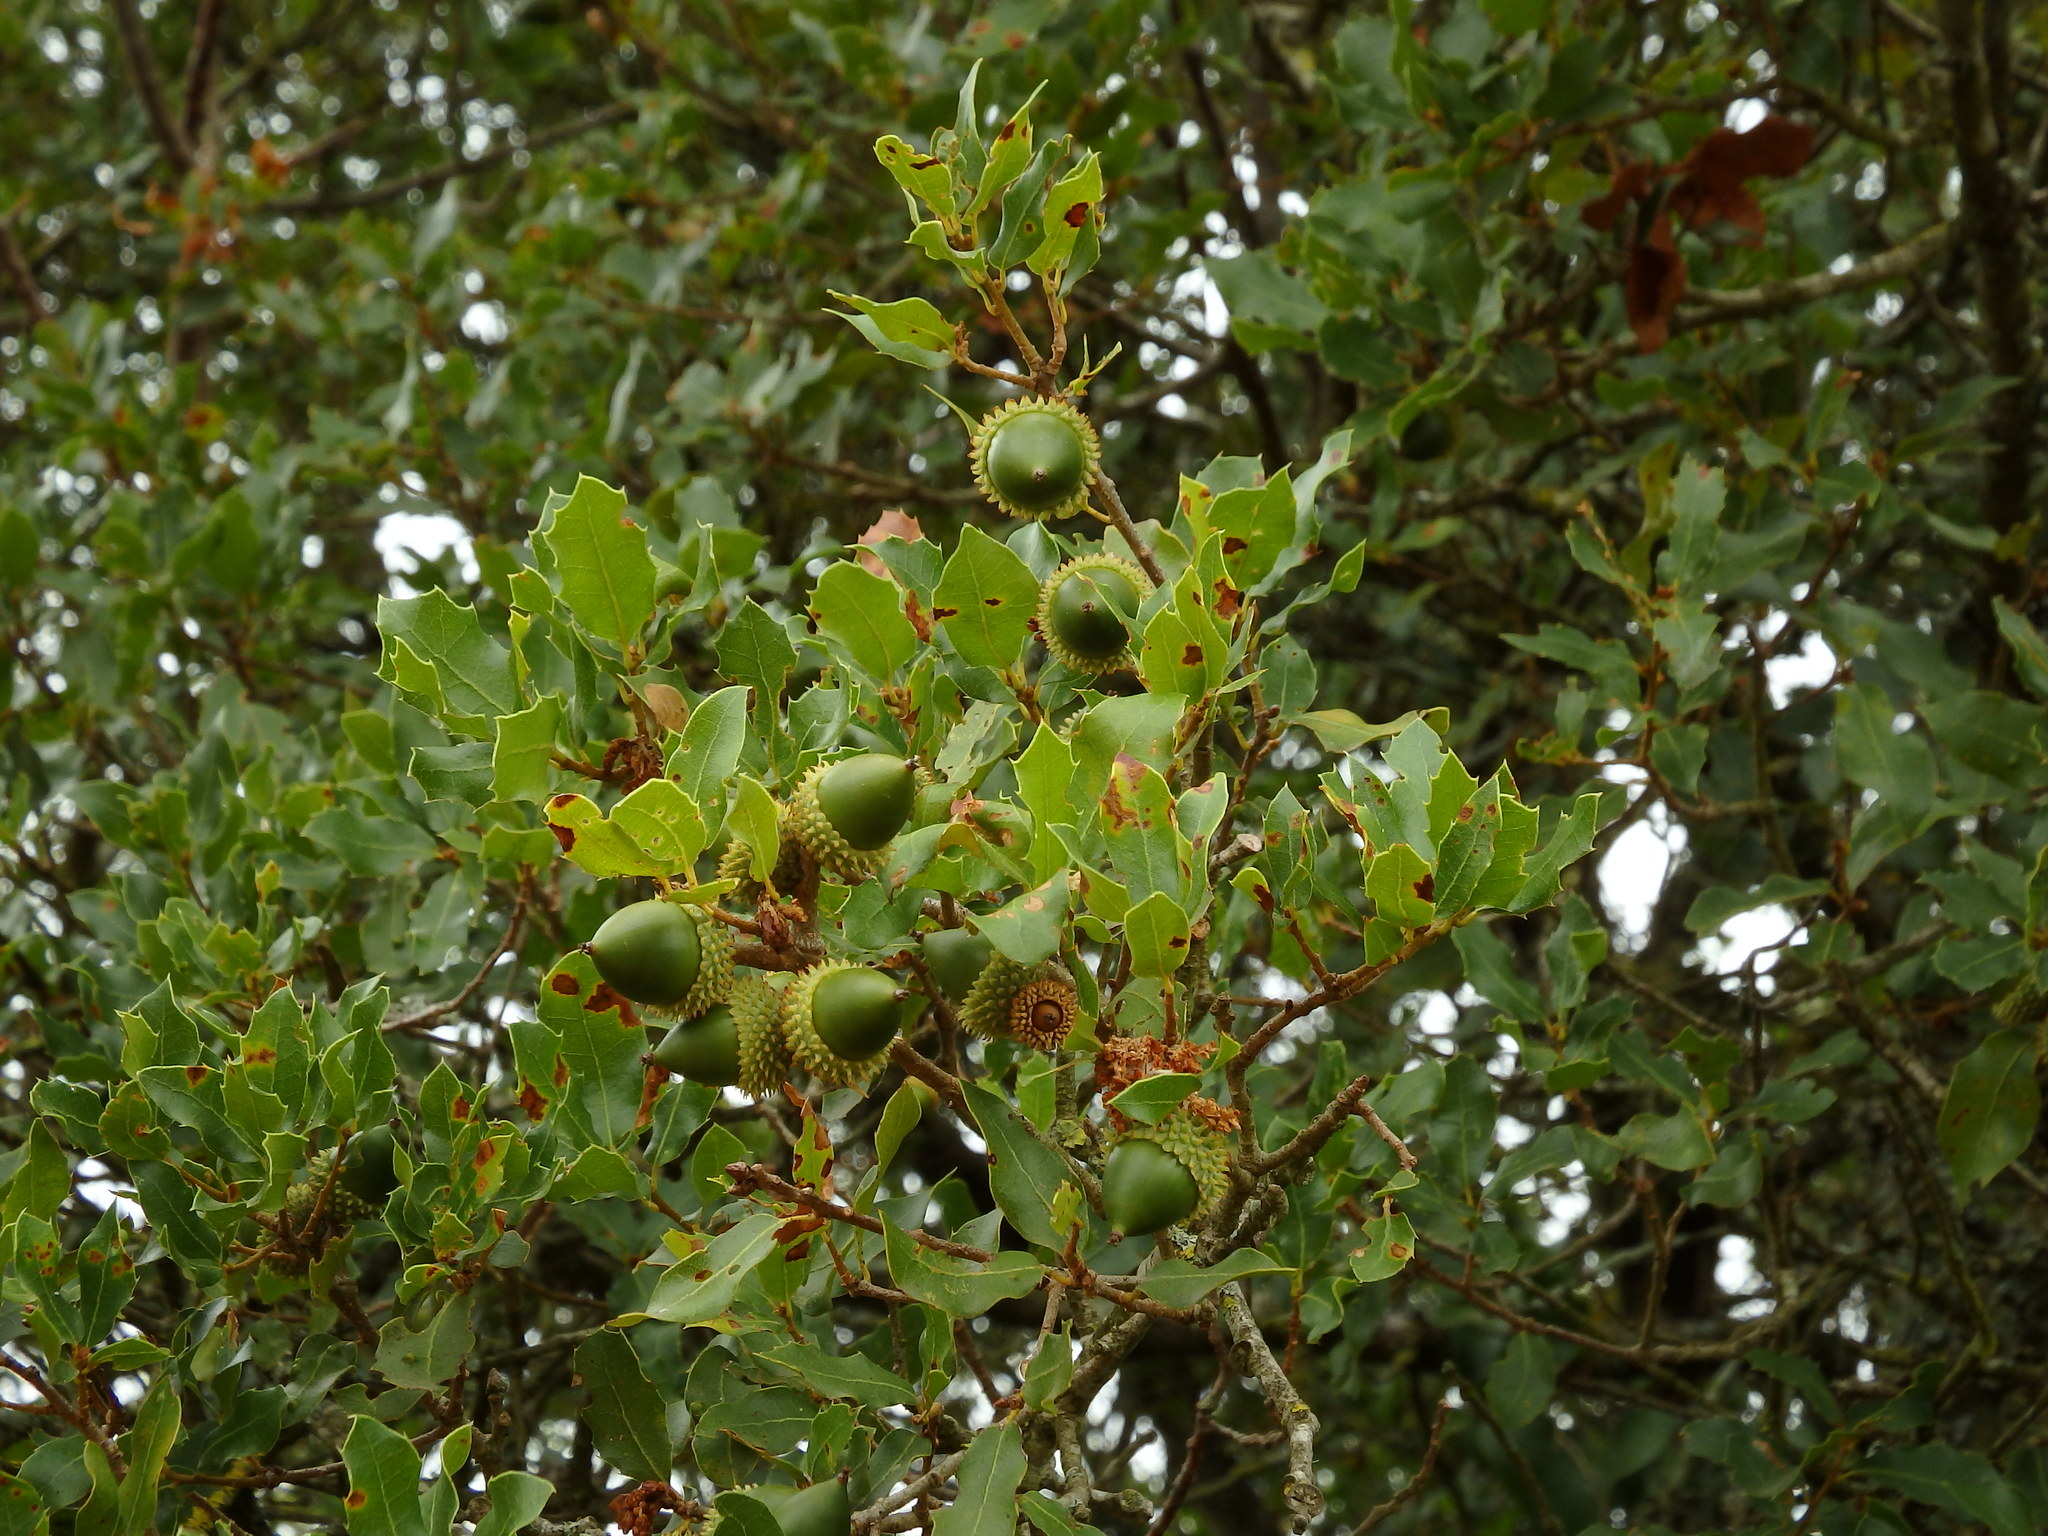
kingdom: Plantae
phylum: Tracheophyta
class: Magnoliopsida
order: Fagales
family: Fagaceae
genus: Quercus
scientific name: Quercus coccifera
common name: Kermes oak
